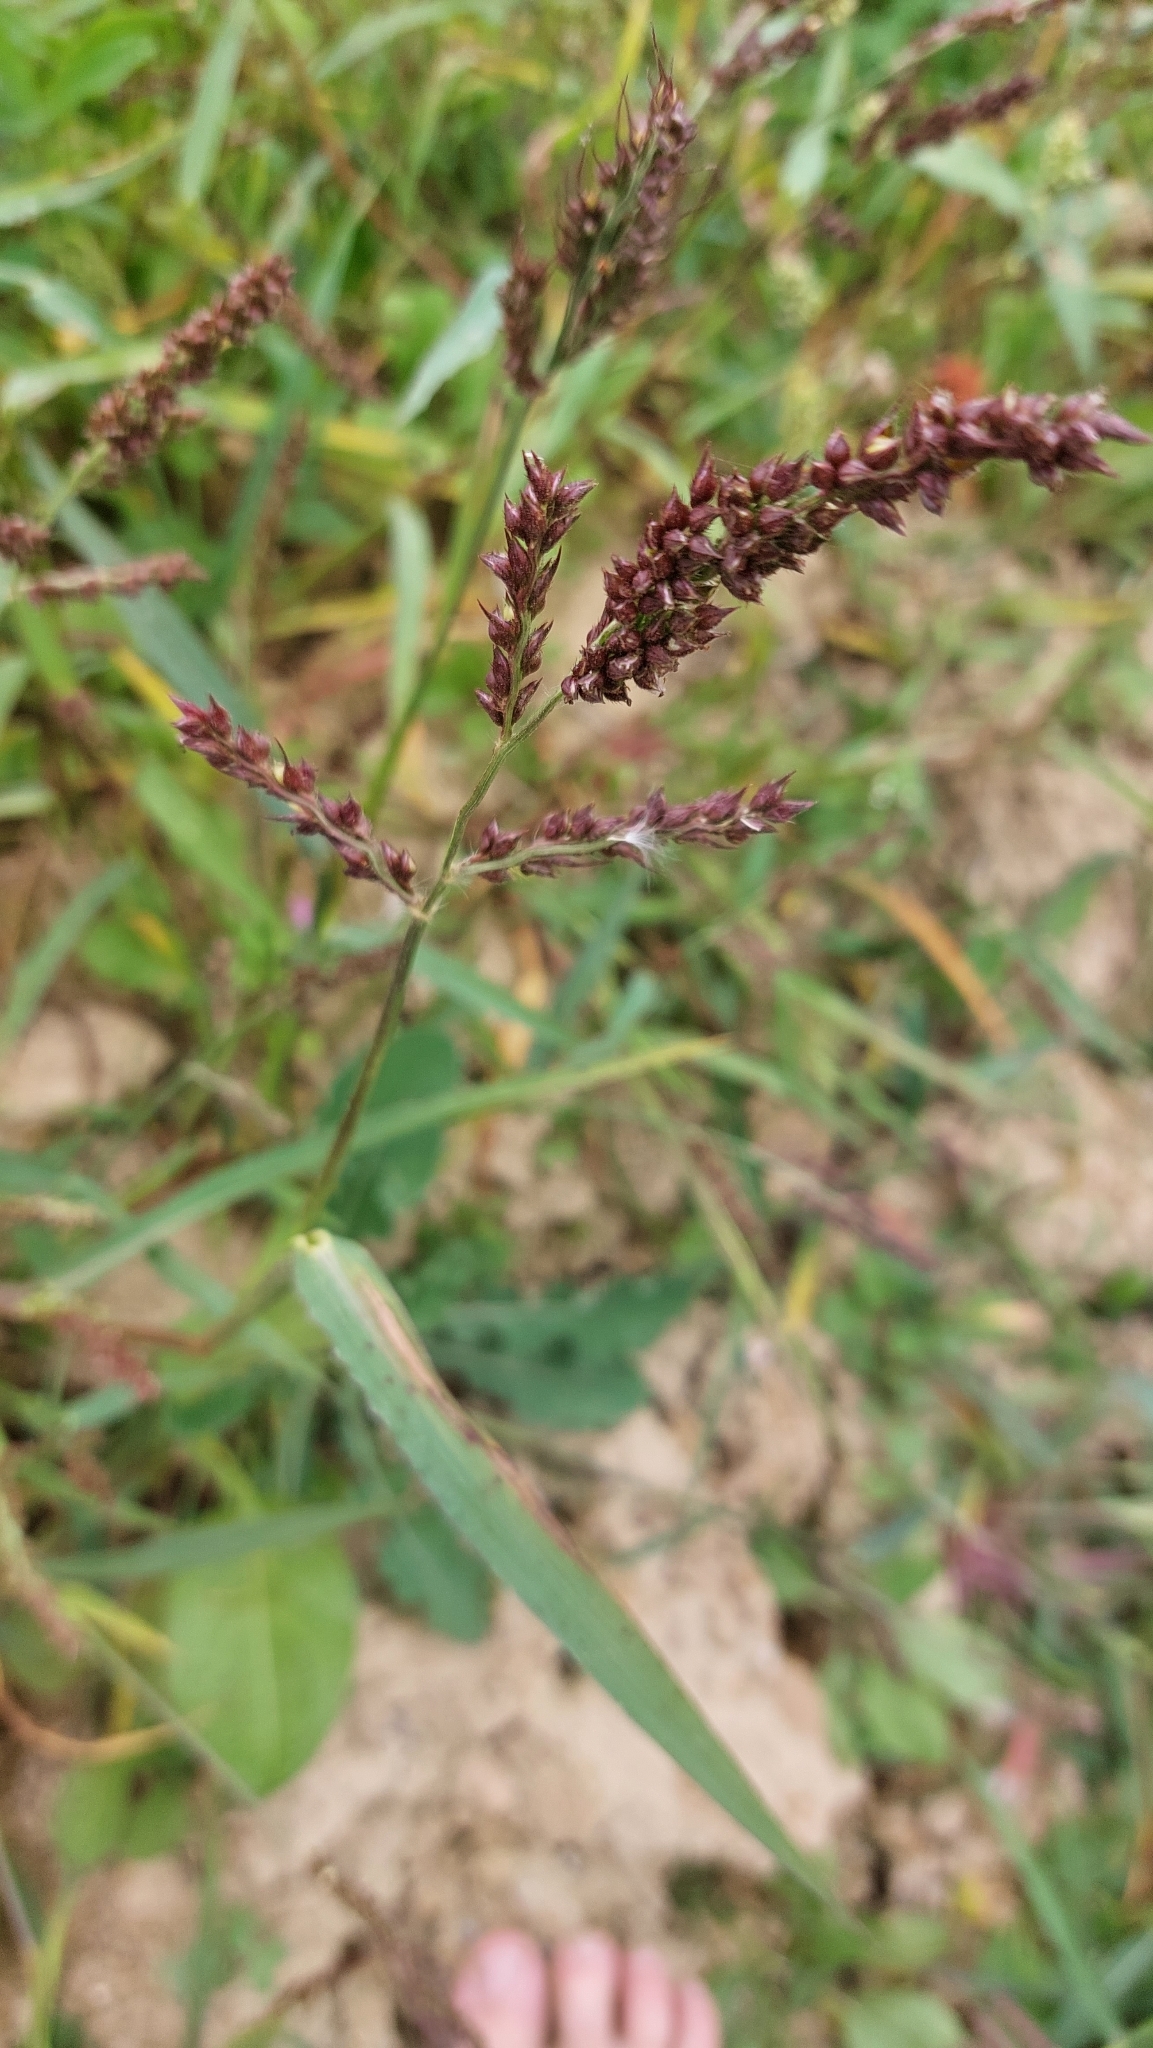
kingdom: Plantae
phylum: Tracheophyta
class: Liliopsida
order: Poales
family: Poaceae
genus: Echinochloa
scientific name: Echinochloa crus-galli
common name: Cockspur
